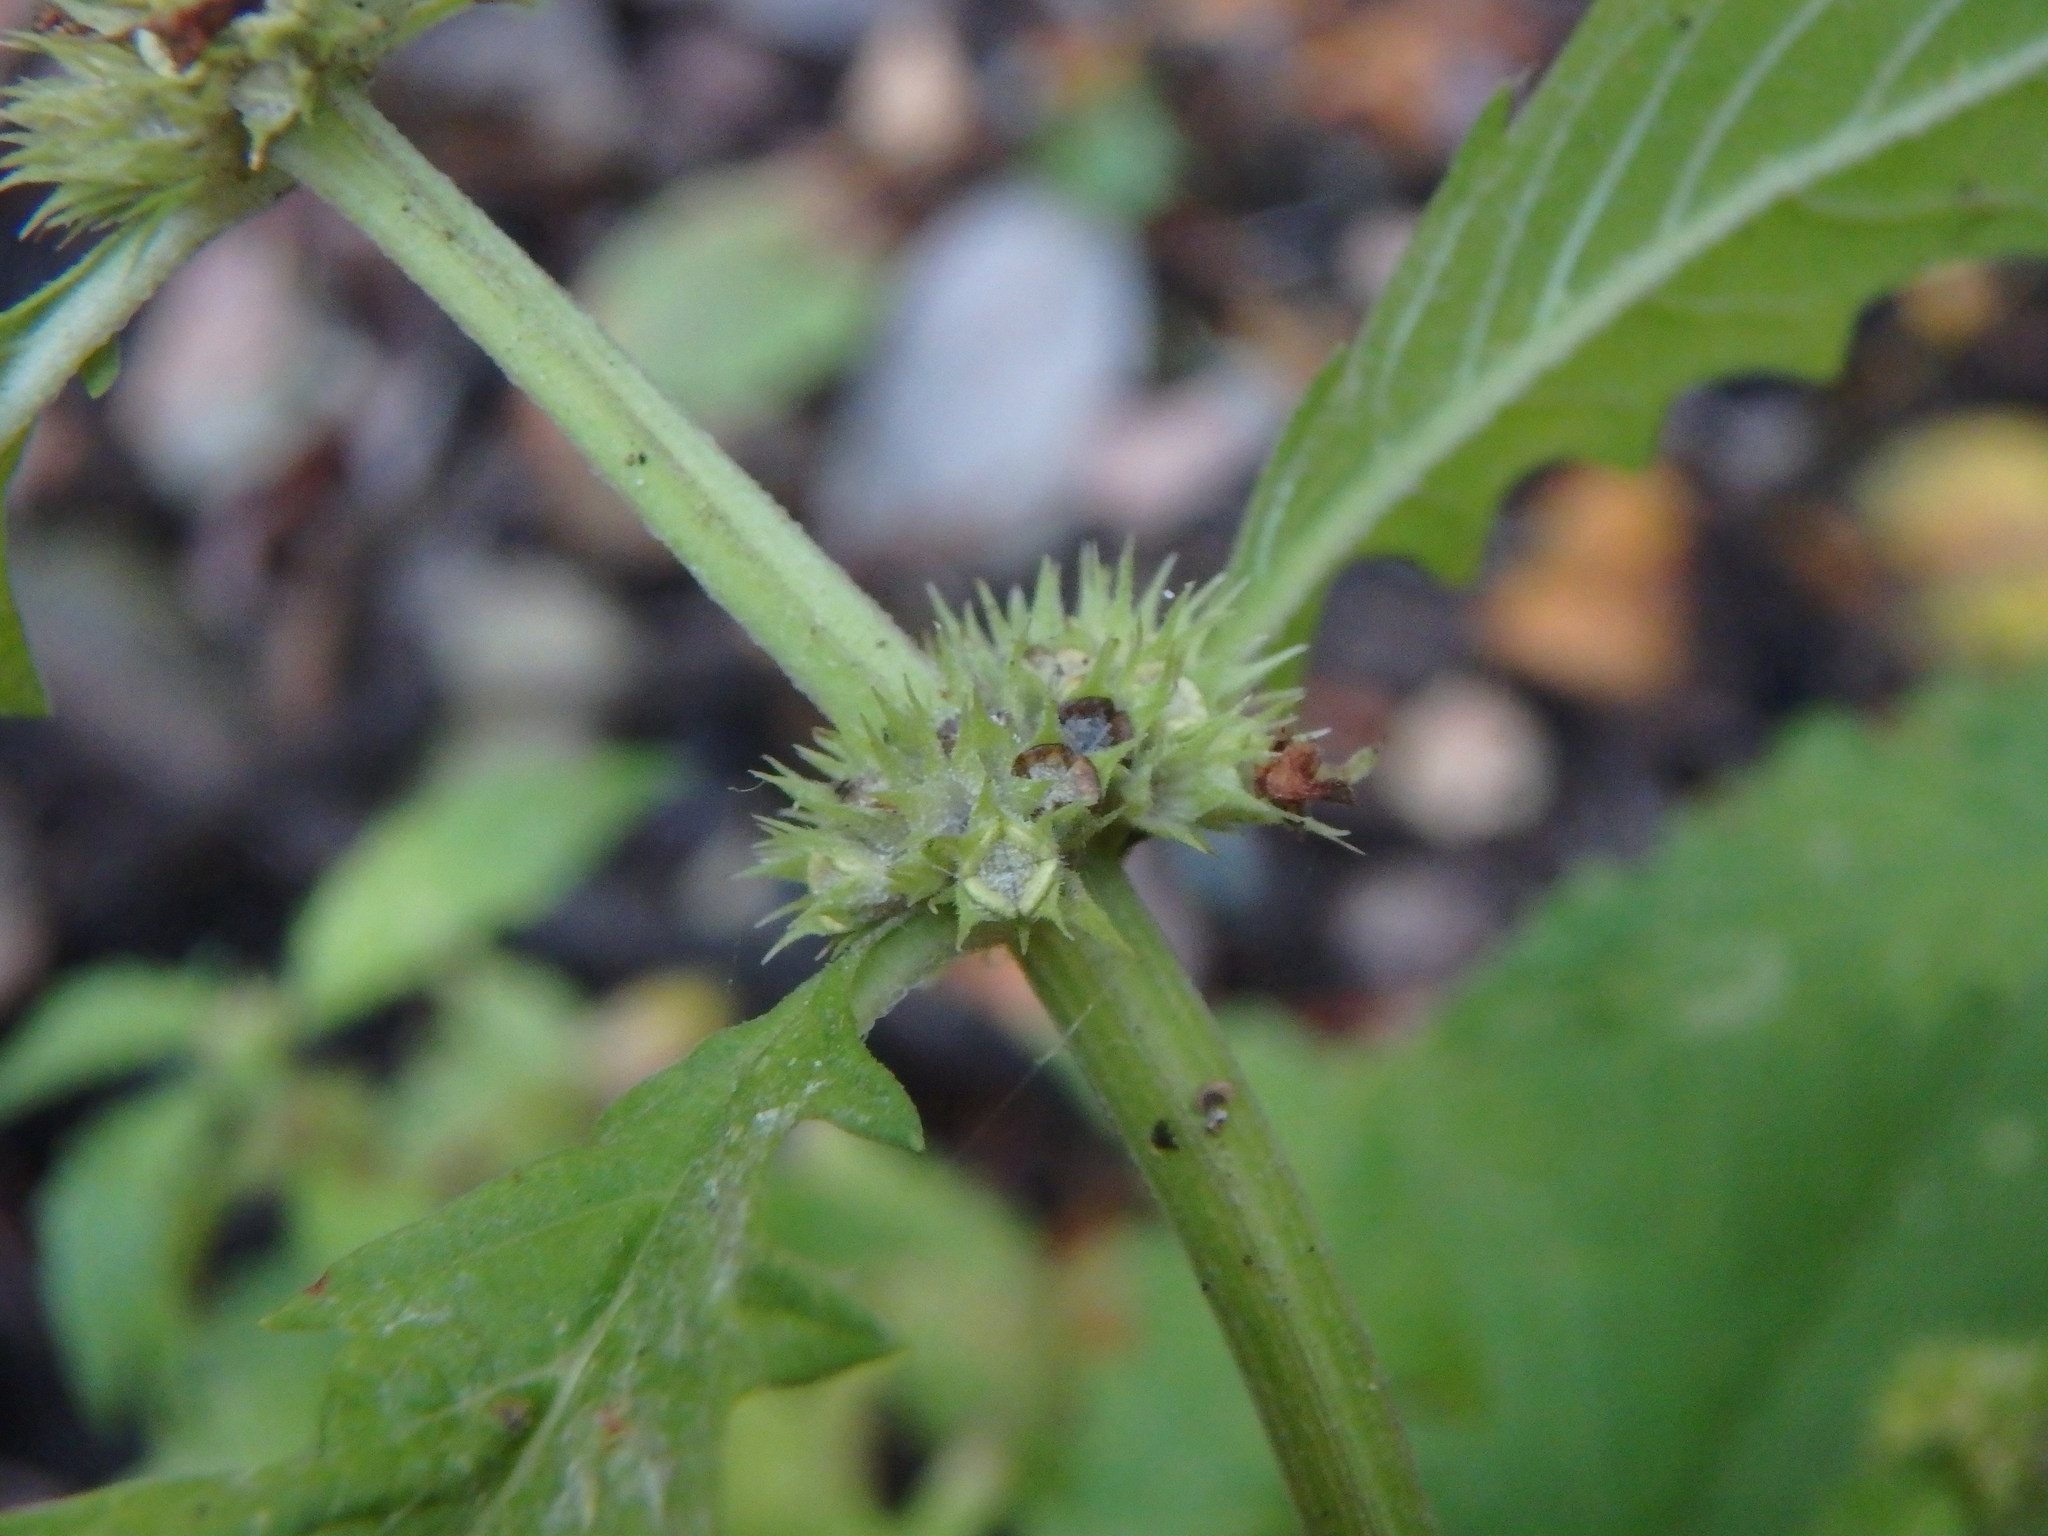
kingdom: Plantae
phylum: Tracheophyta
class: Magnoliopsida
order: Lamiales
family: Lamiaceae
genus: Lycopus
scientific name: Lycopus europaeus
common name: European bugleweed
